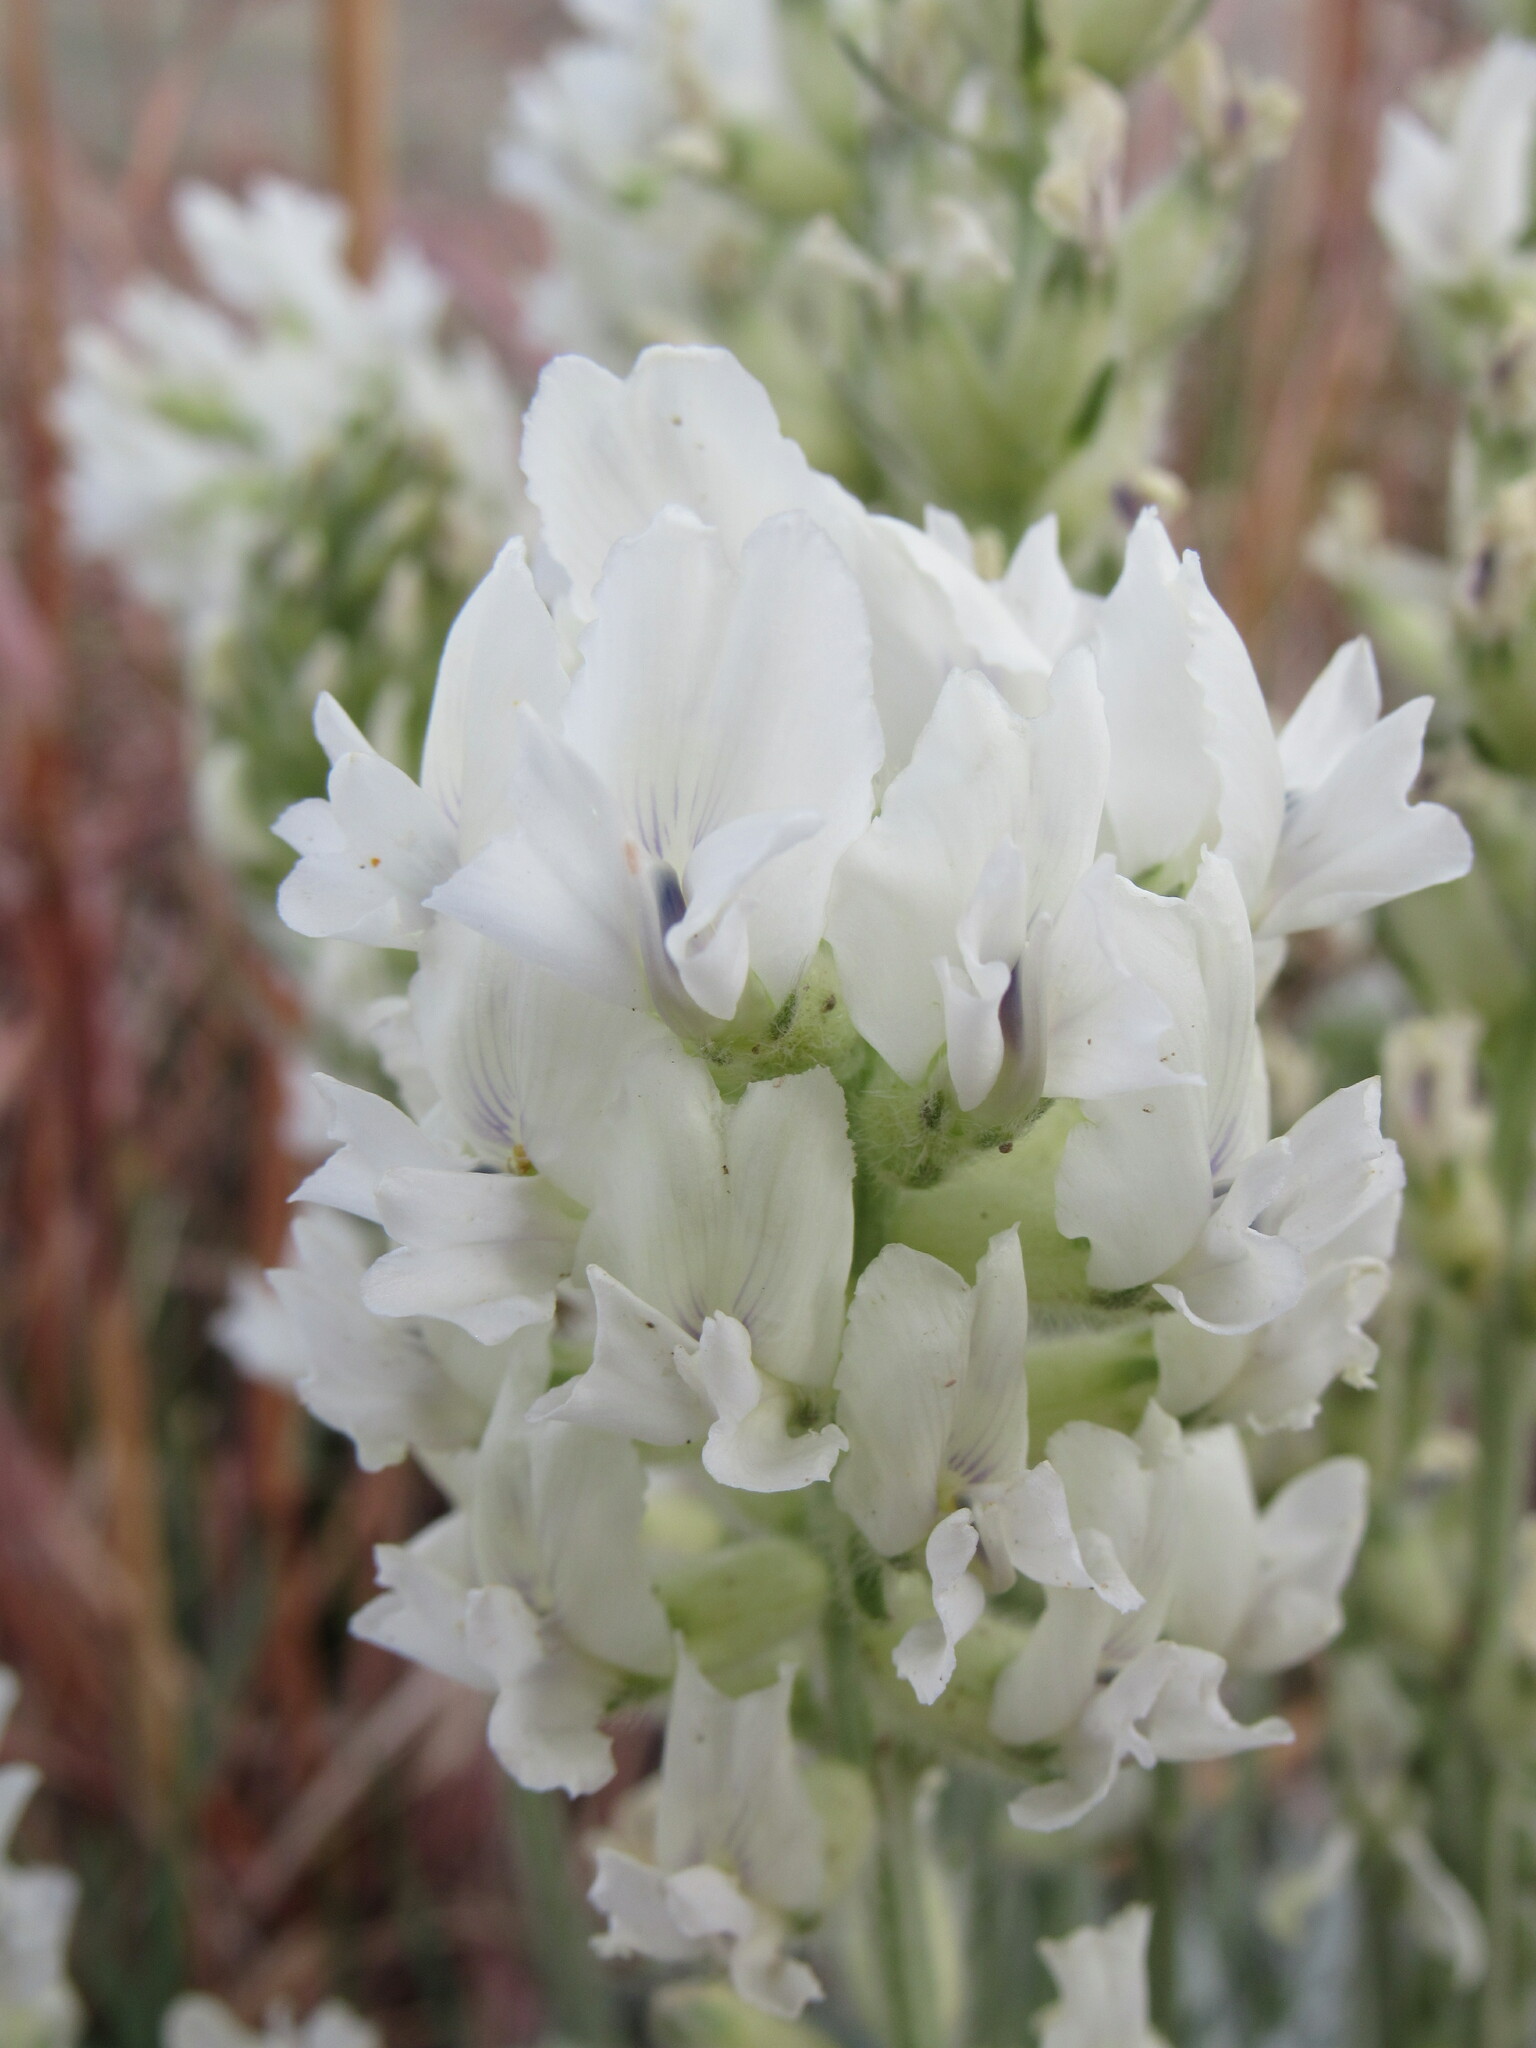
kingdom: Plantae
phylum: Tracheophyta
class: Magnoliopsida
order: Fabales
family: Fabaceae
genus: Oxytropis
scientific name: Oxytropis sericea
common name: Silky locoweed
